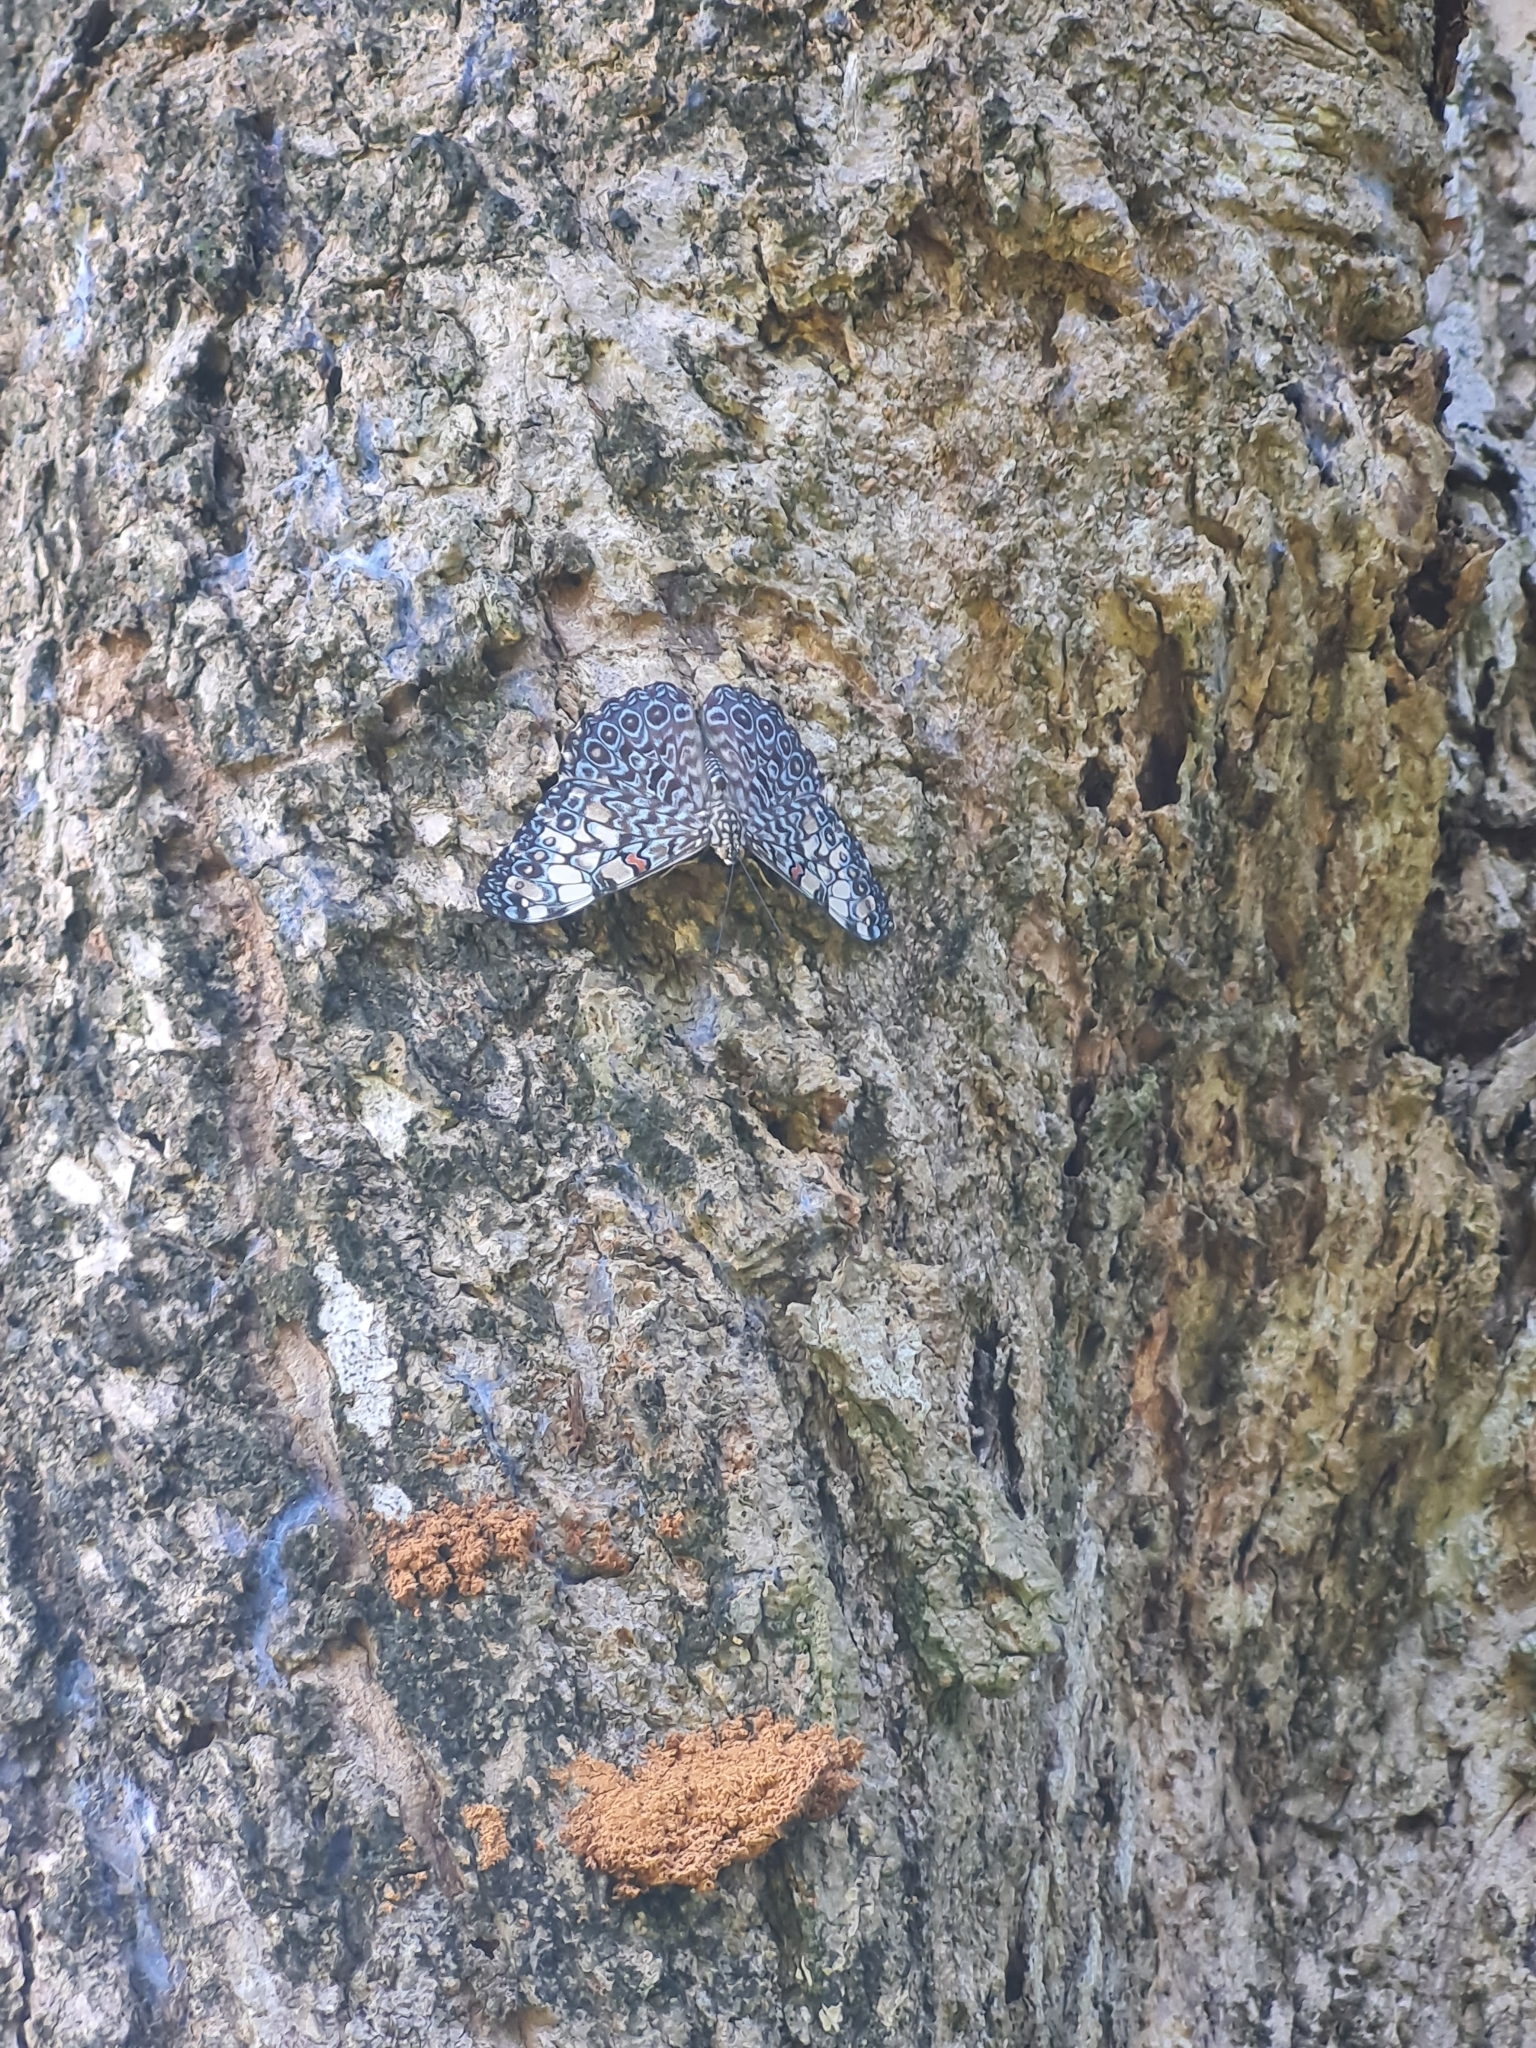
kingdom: Animalia
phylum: Arthropoda
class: Insecta
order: Lepidoptera
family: Nymphalidae
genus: Hamadryas
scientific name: Hamadryas feronia
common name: Variable cracker
